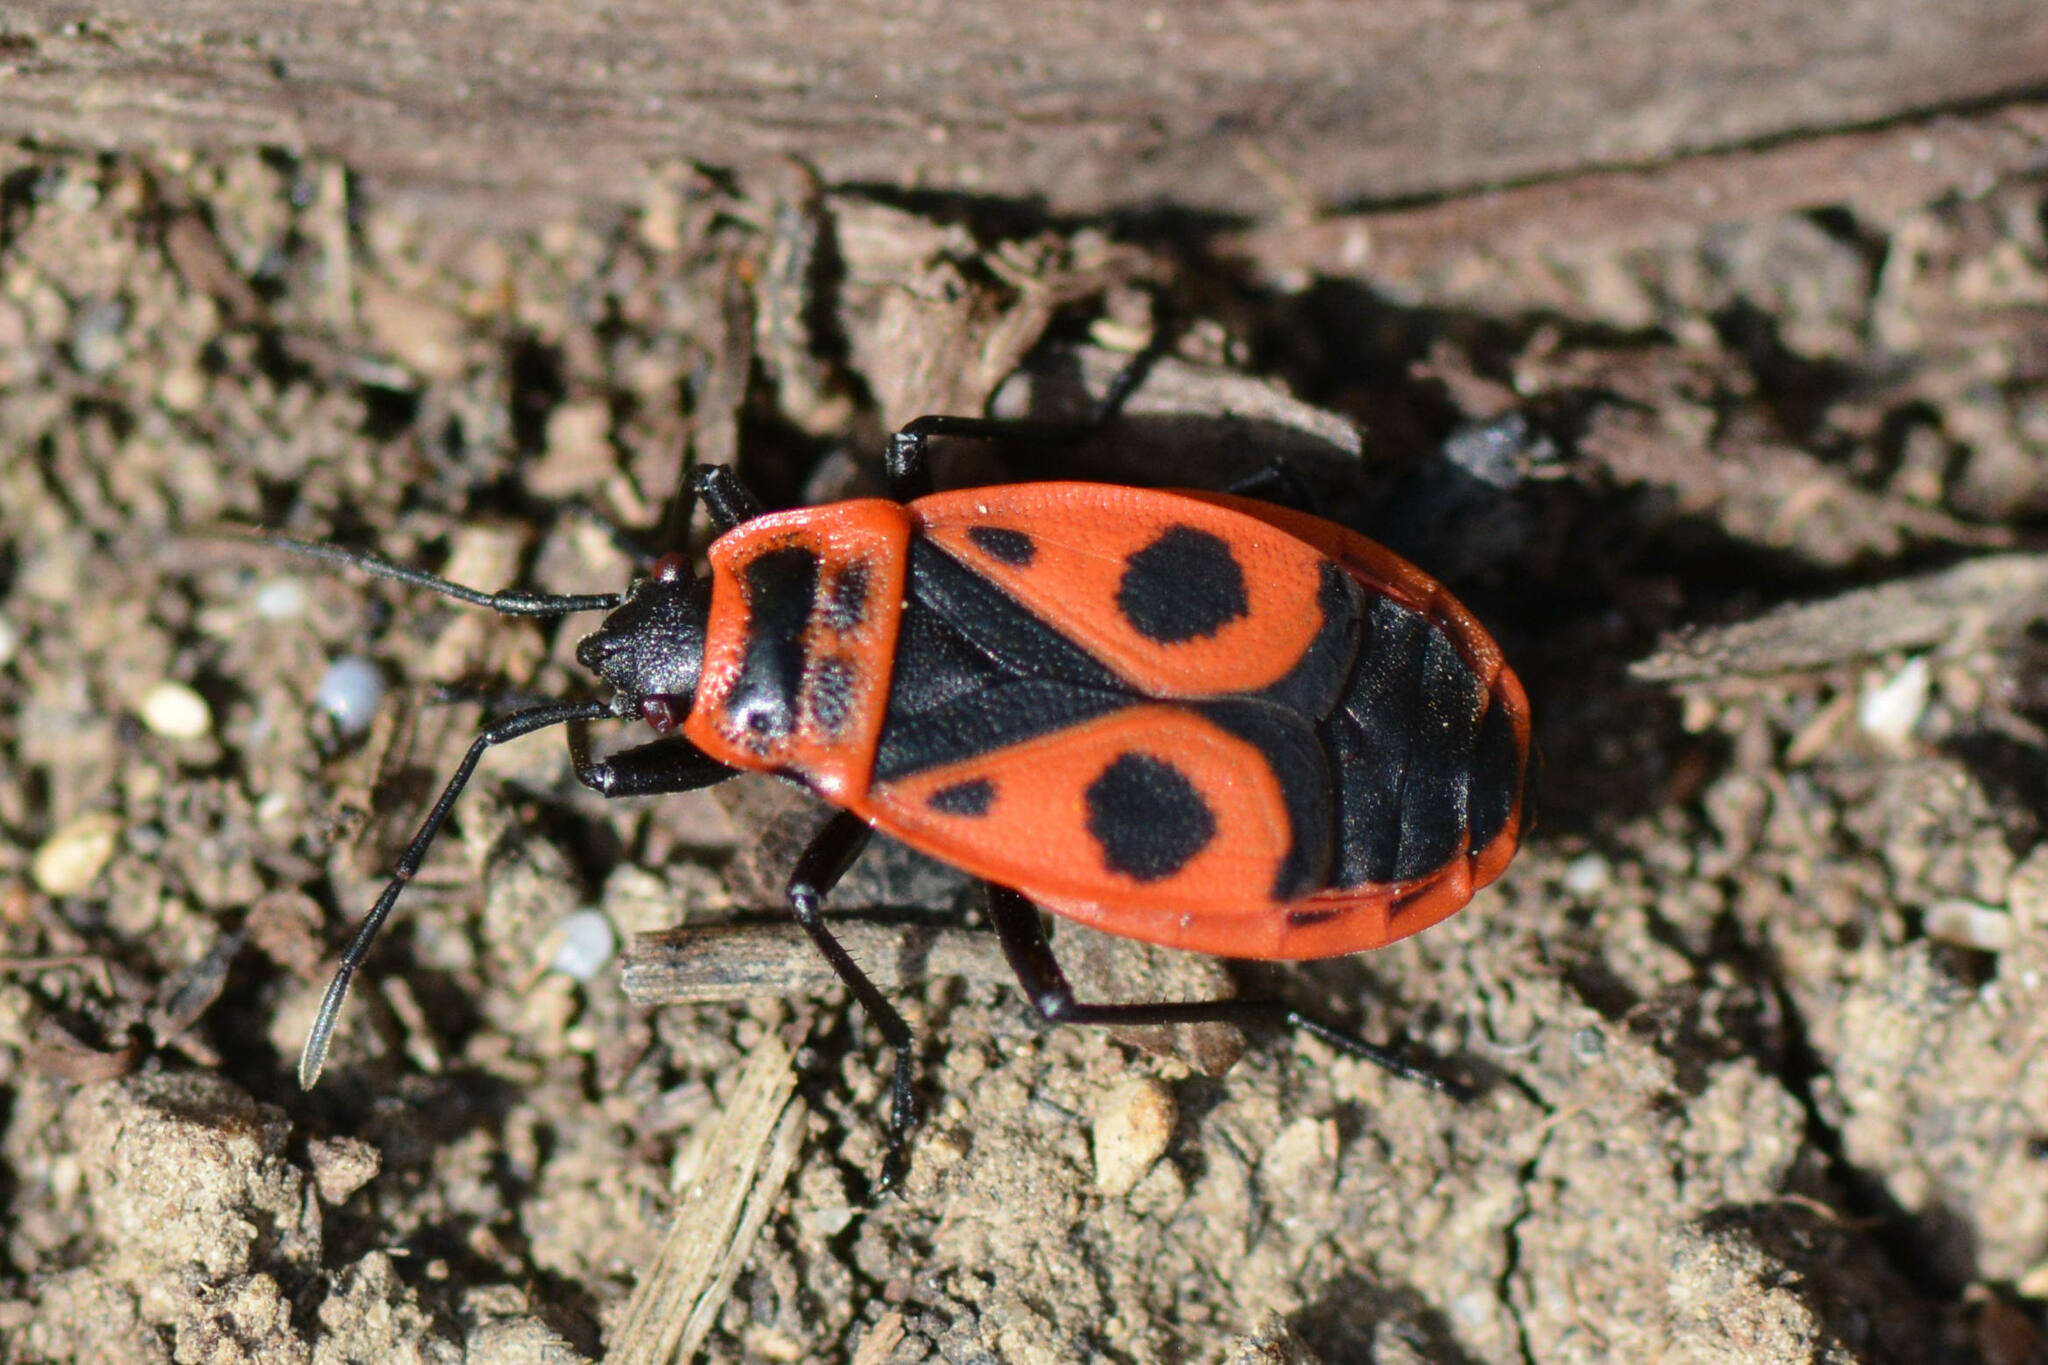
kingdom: Animalia
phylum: Arthropoda
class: Insecta
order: Hemiptera
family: Pyrrhocoridae
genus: Pyrrhocoris
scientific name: Pyrrhocoris apterus
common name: Firebug
